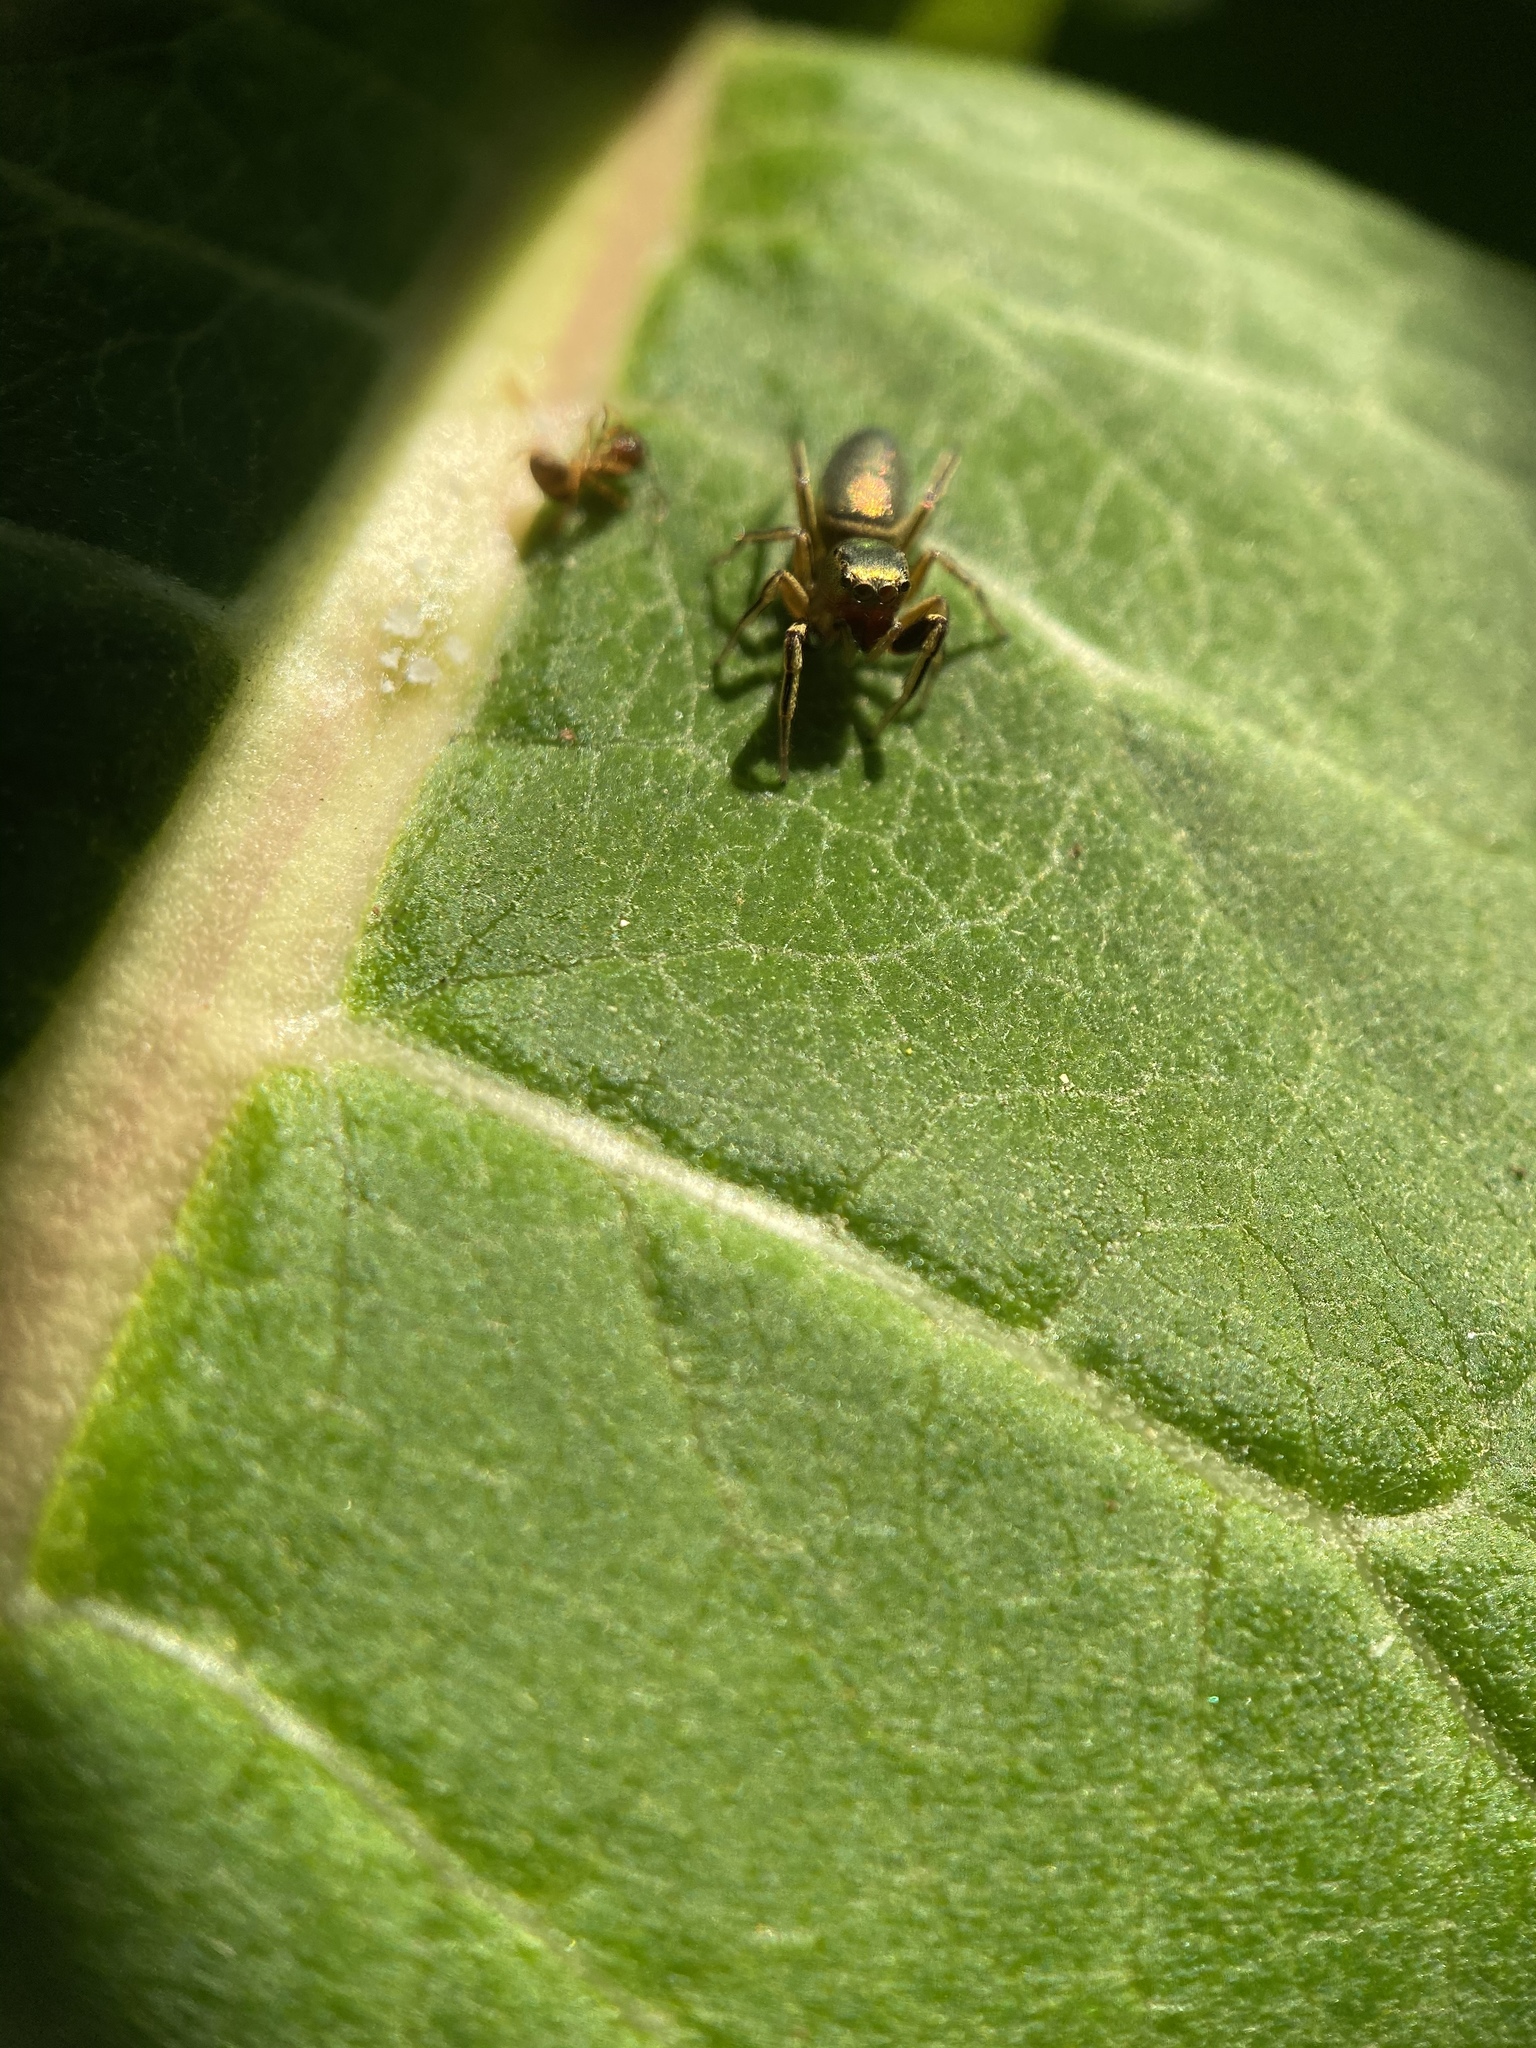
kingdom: Animalia
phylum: Arthropoda
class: Arachnida
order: Araneae
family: Salticidae
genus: Tutelina
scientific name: Tutelina elegans
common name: Thin-spined jumping spider
